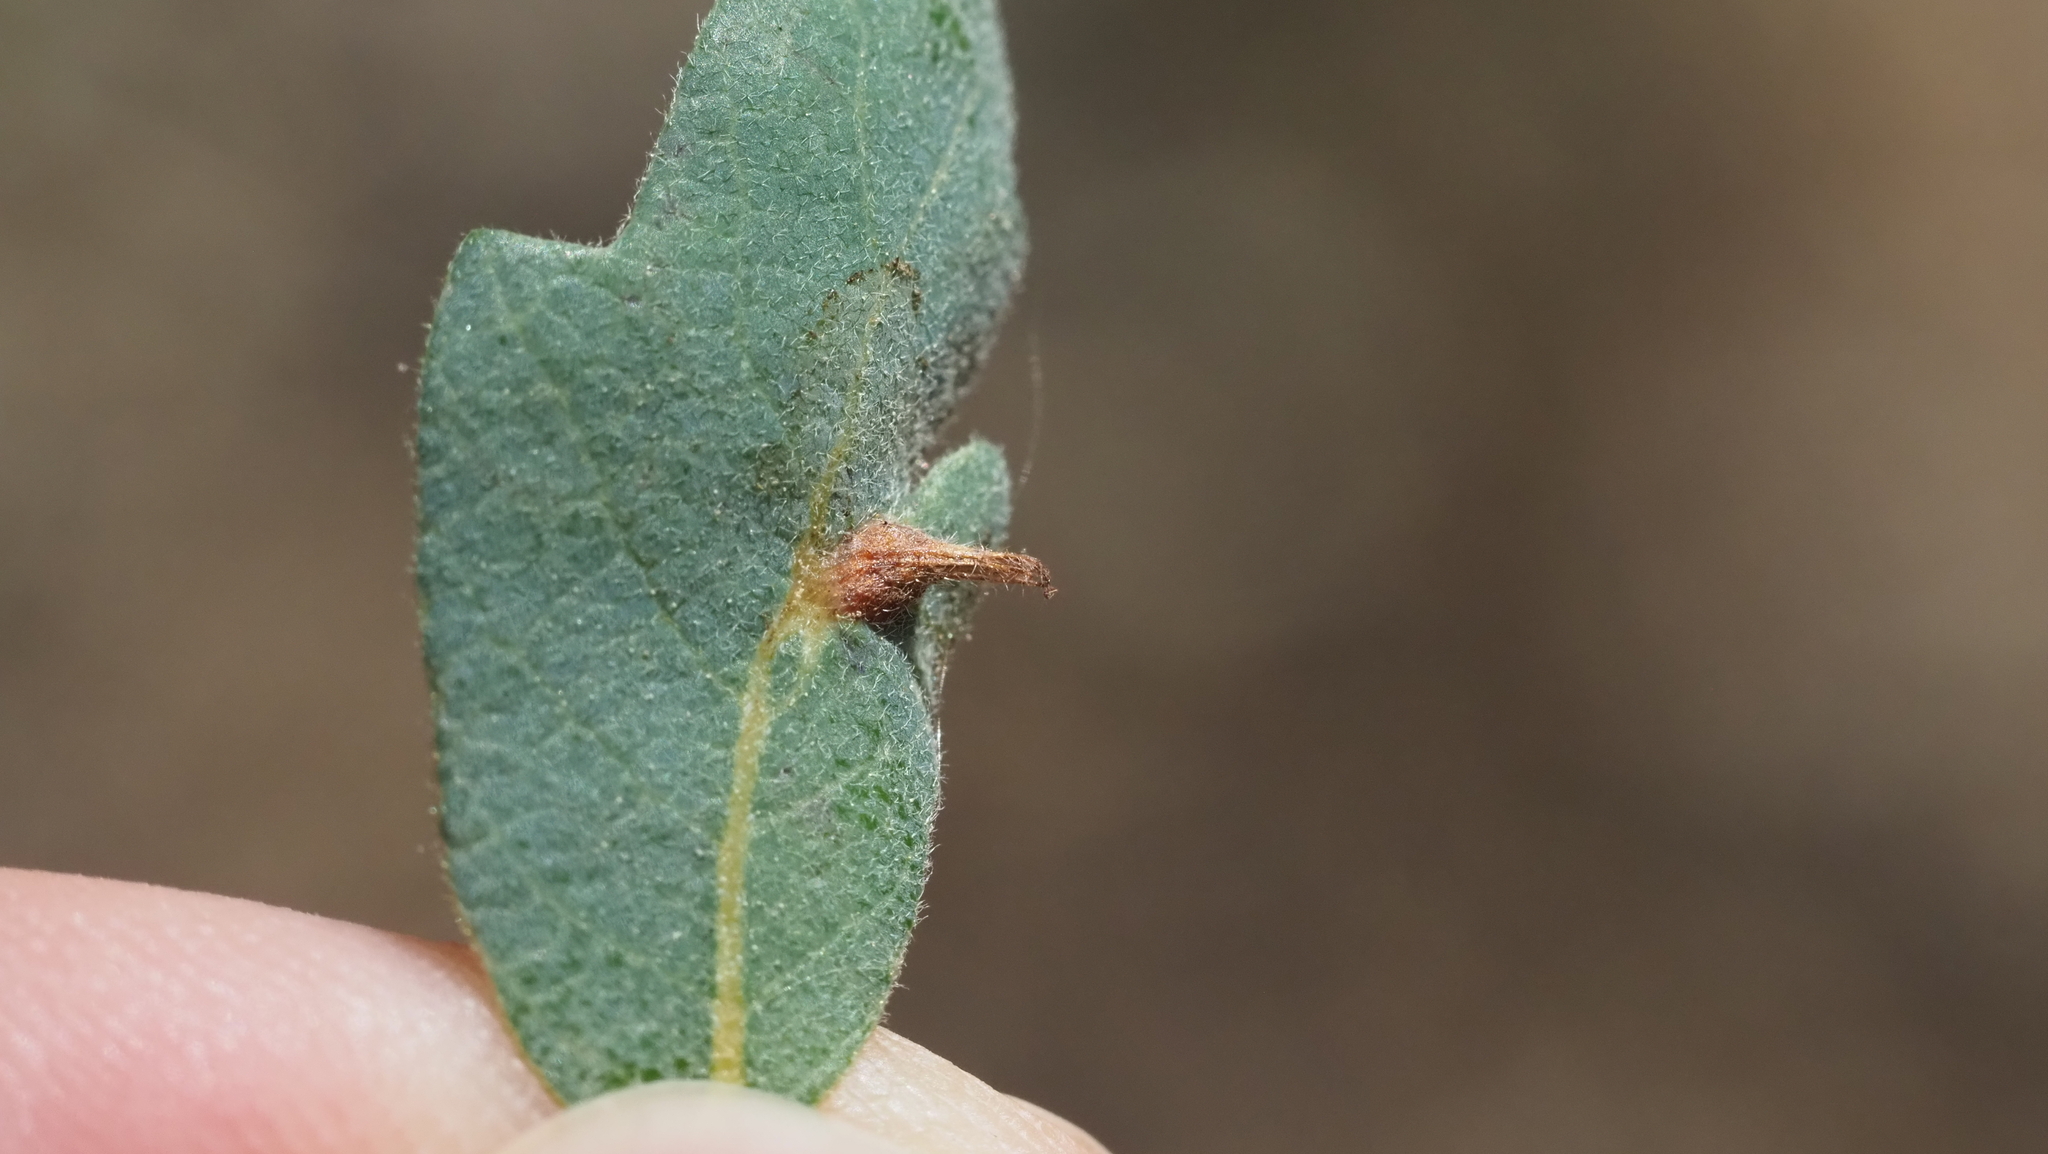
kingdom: Animalia
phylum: Arthropoda
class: Insecta
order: Hymenoptera
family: Cynipidae
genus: Andricus
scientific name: Andricus
